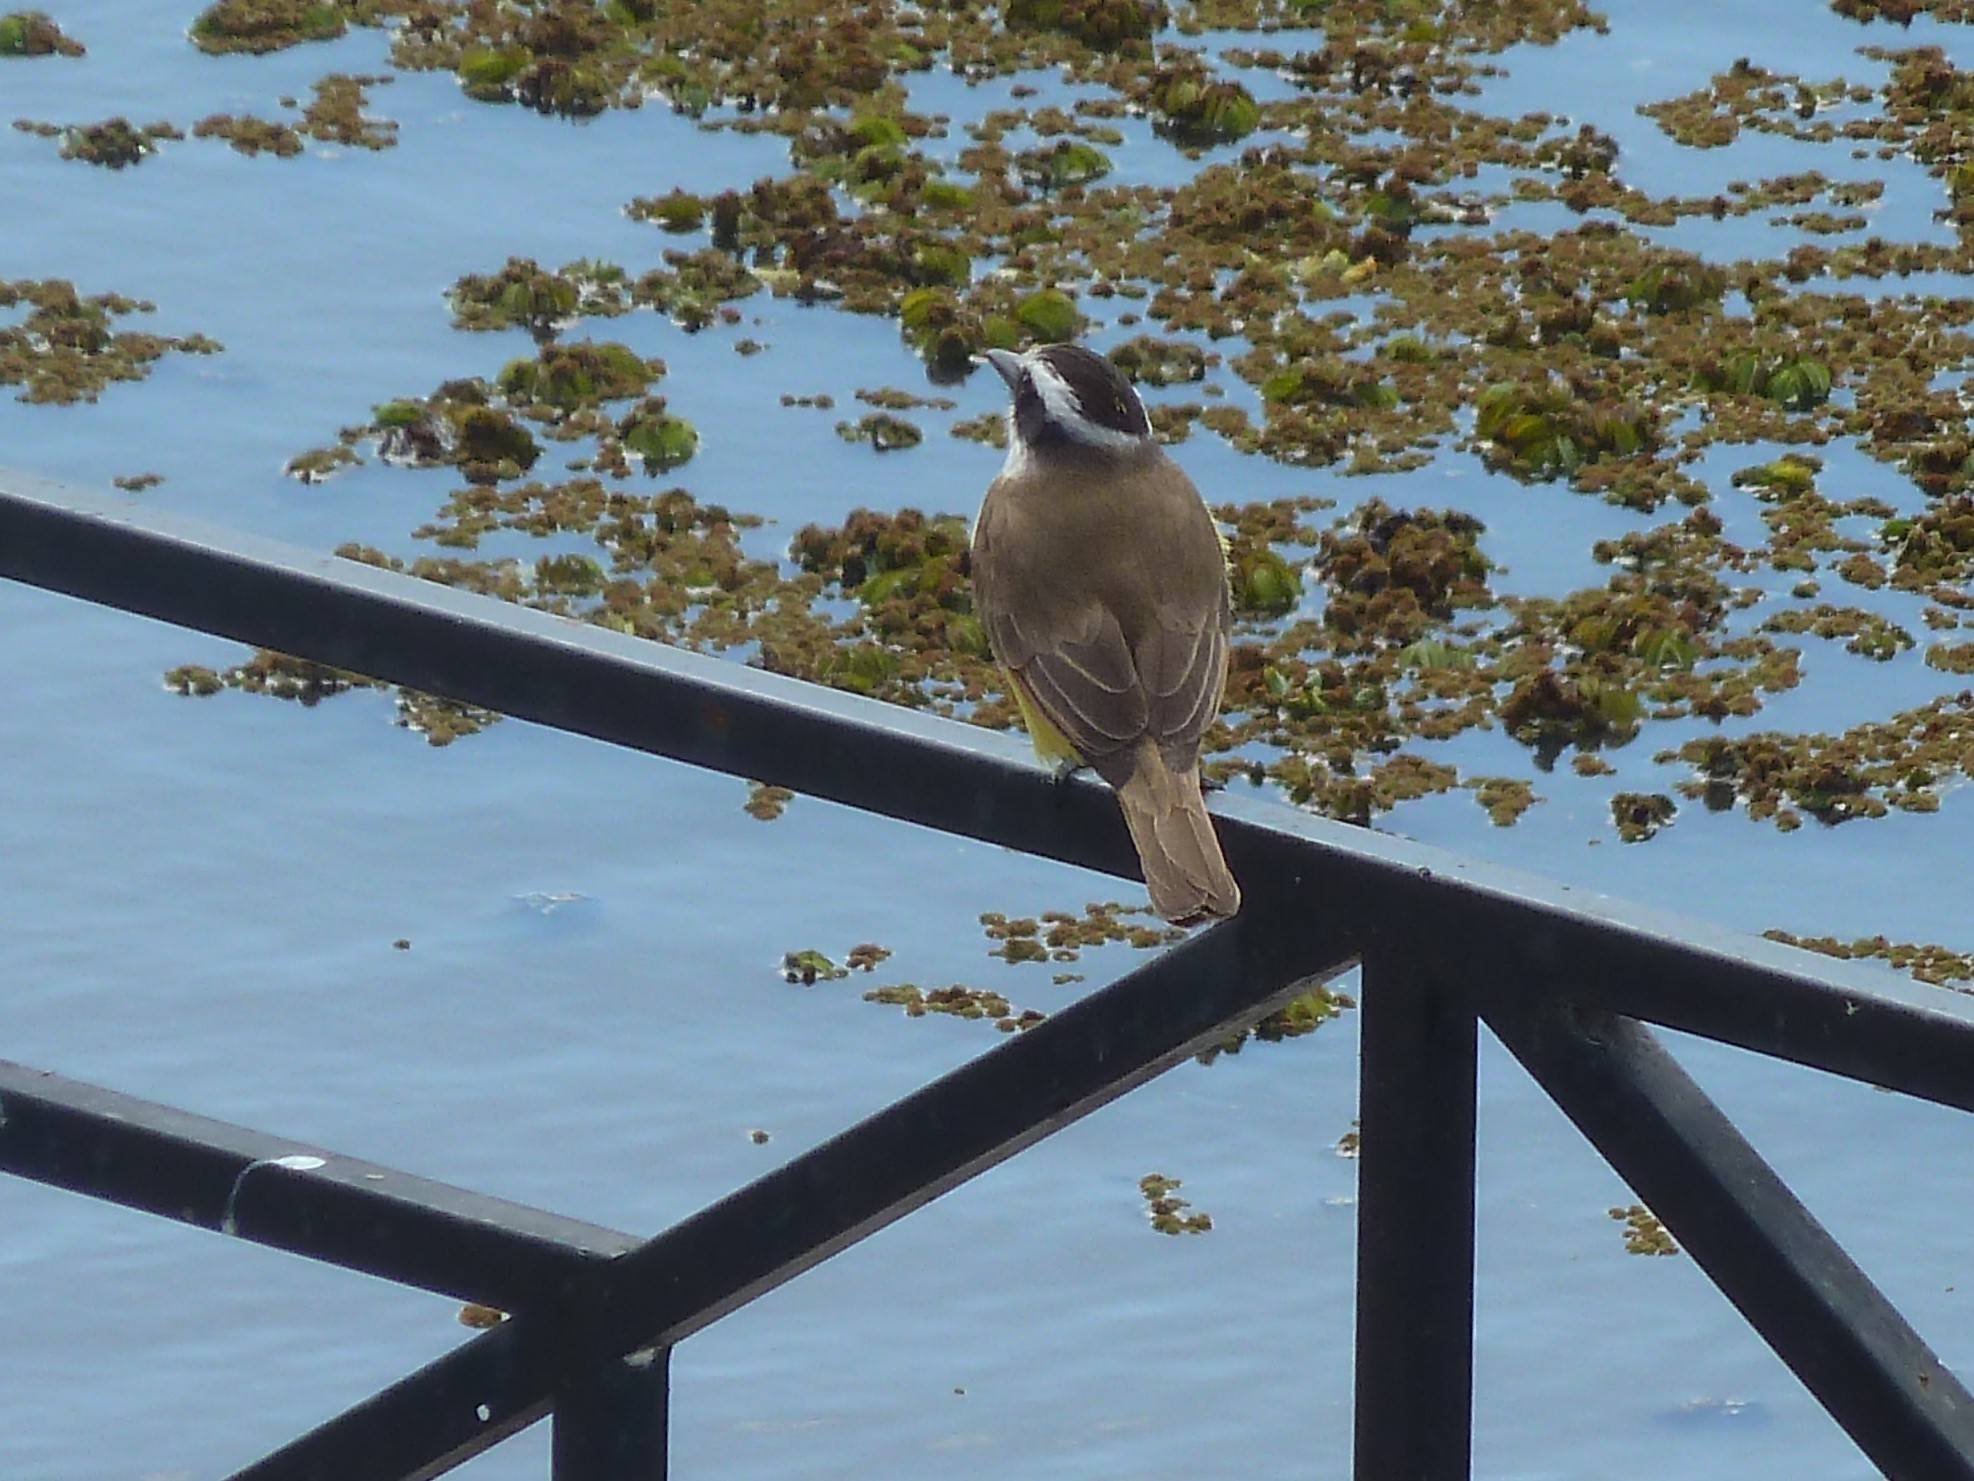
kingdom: Animalia
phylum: Chordata
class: Aves
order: Passeriformes
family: Tyrannidae
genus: Pitangus
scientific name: Pitangus sulphuratus
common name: Great kiskadee
